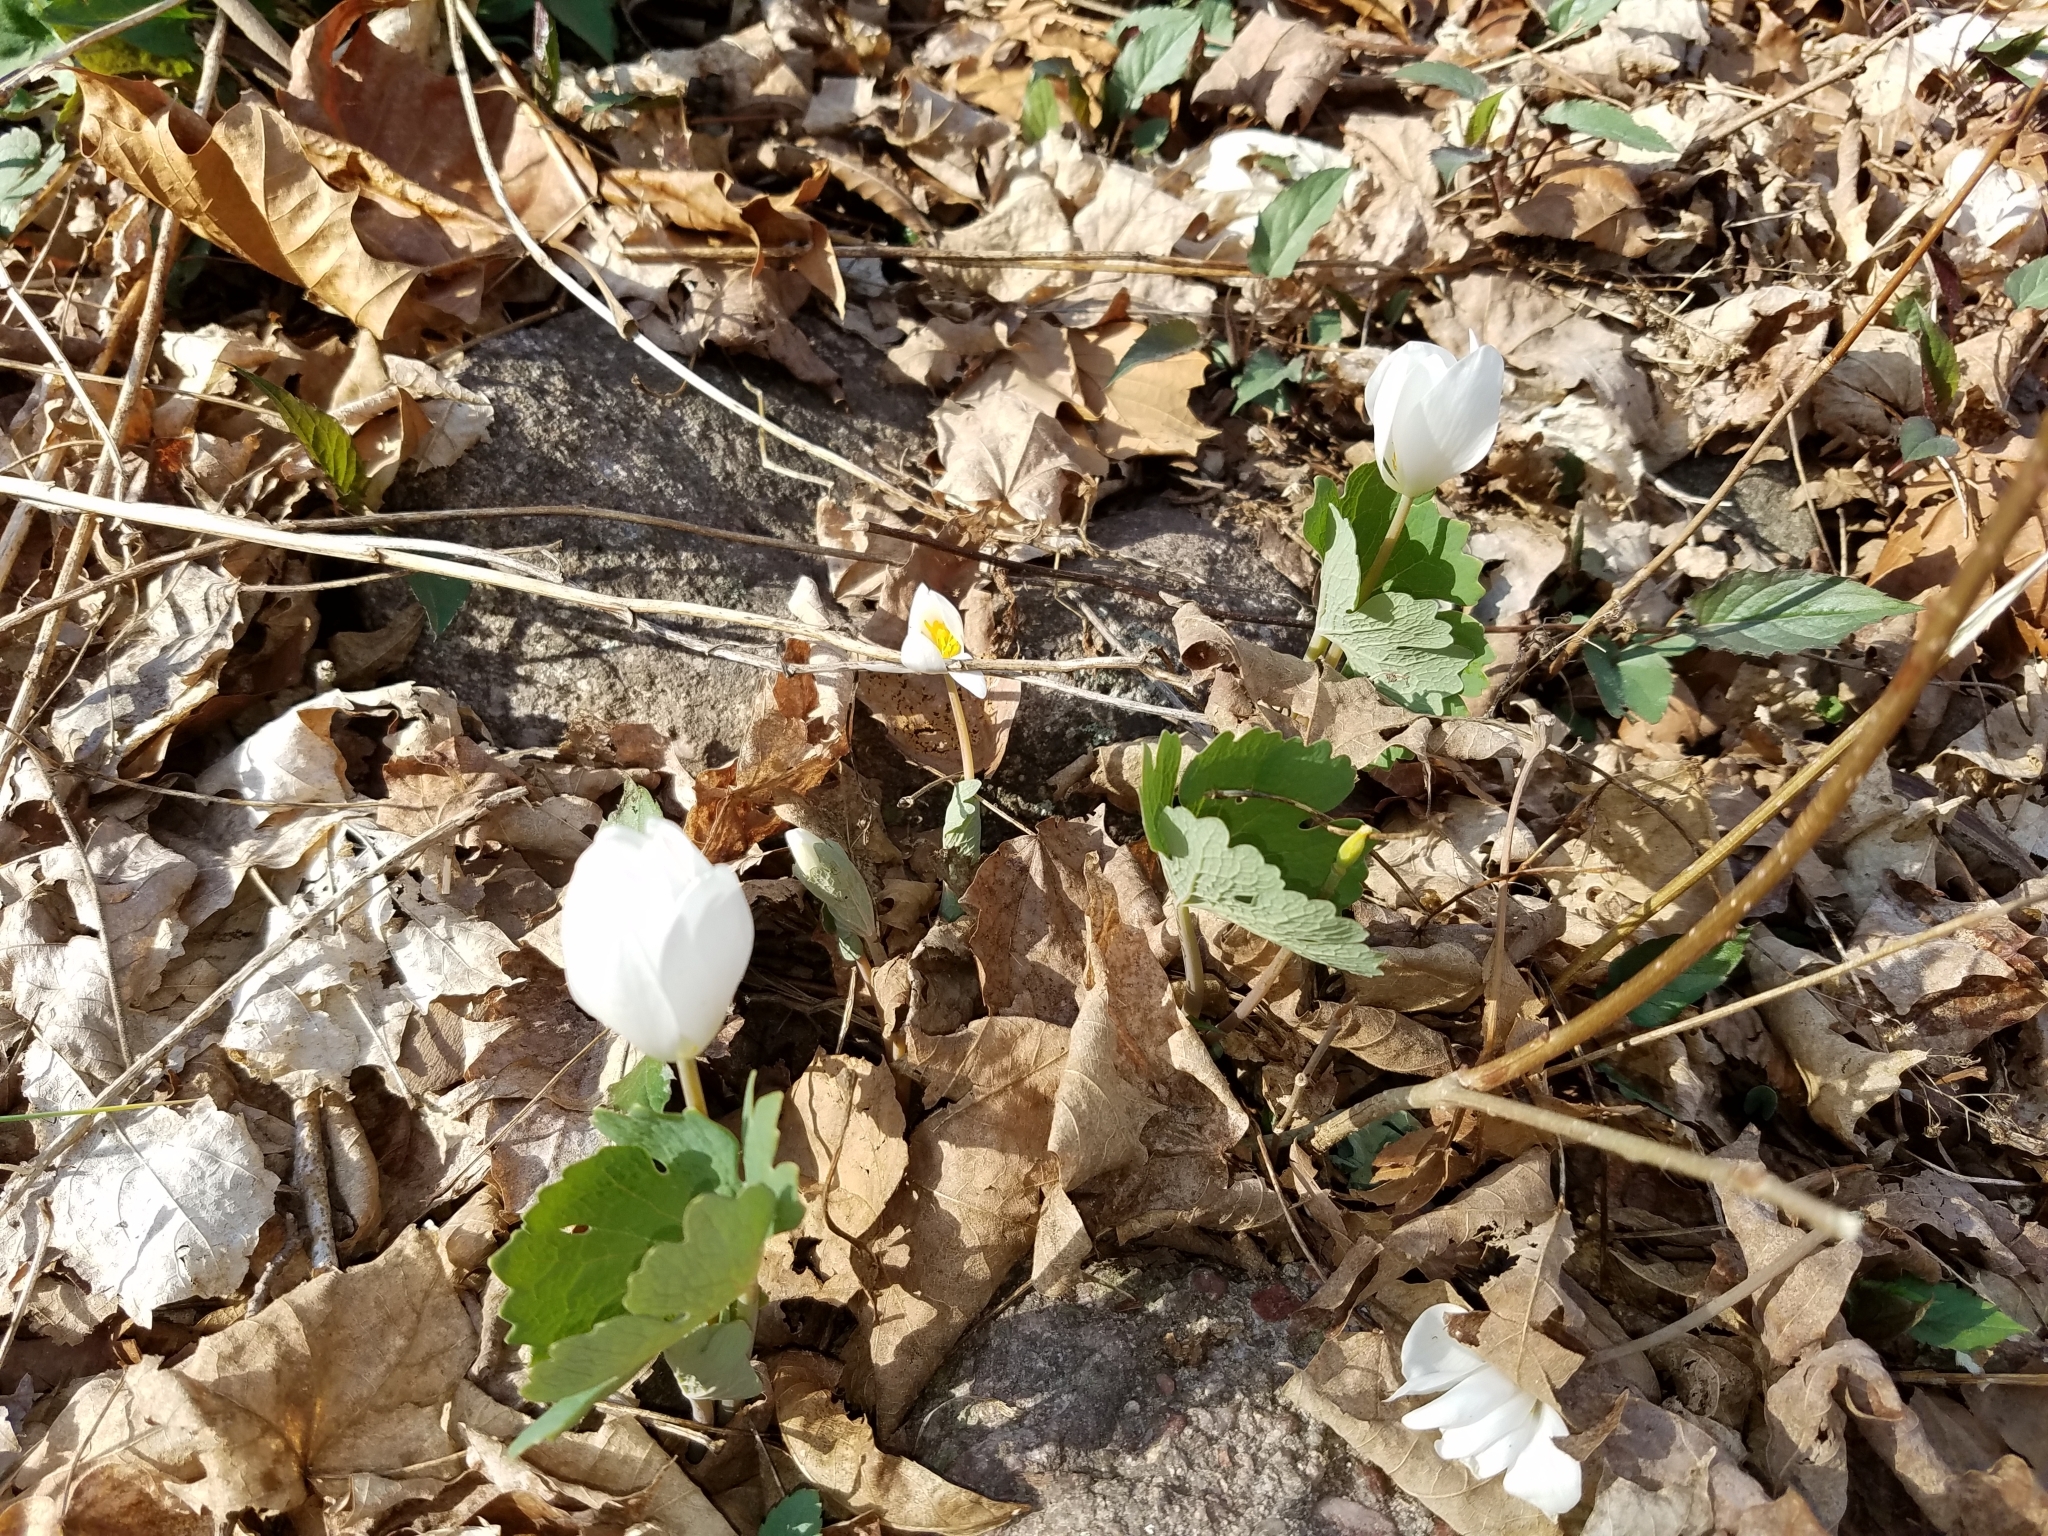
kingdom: Plantae
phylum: Tracheophyta
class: Magnoliopsida
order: Ranunculales
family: Papaveraceae
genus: Sanguinaria
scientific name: Sanguinaria canadensis
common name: Bloodroot
